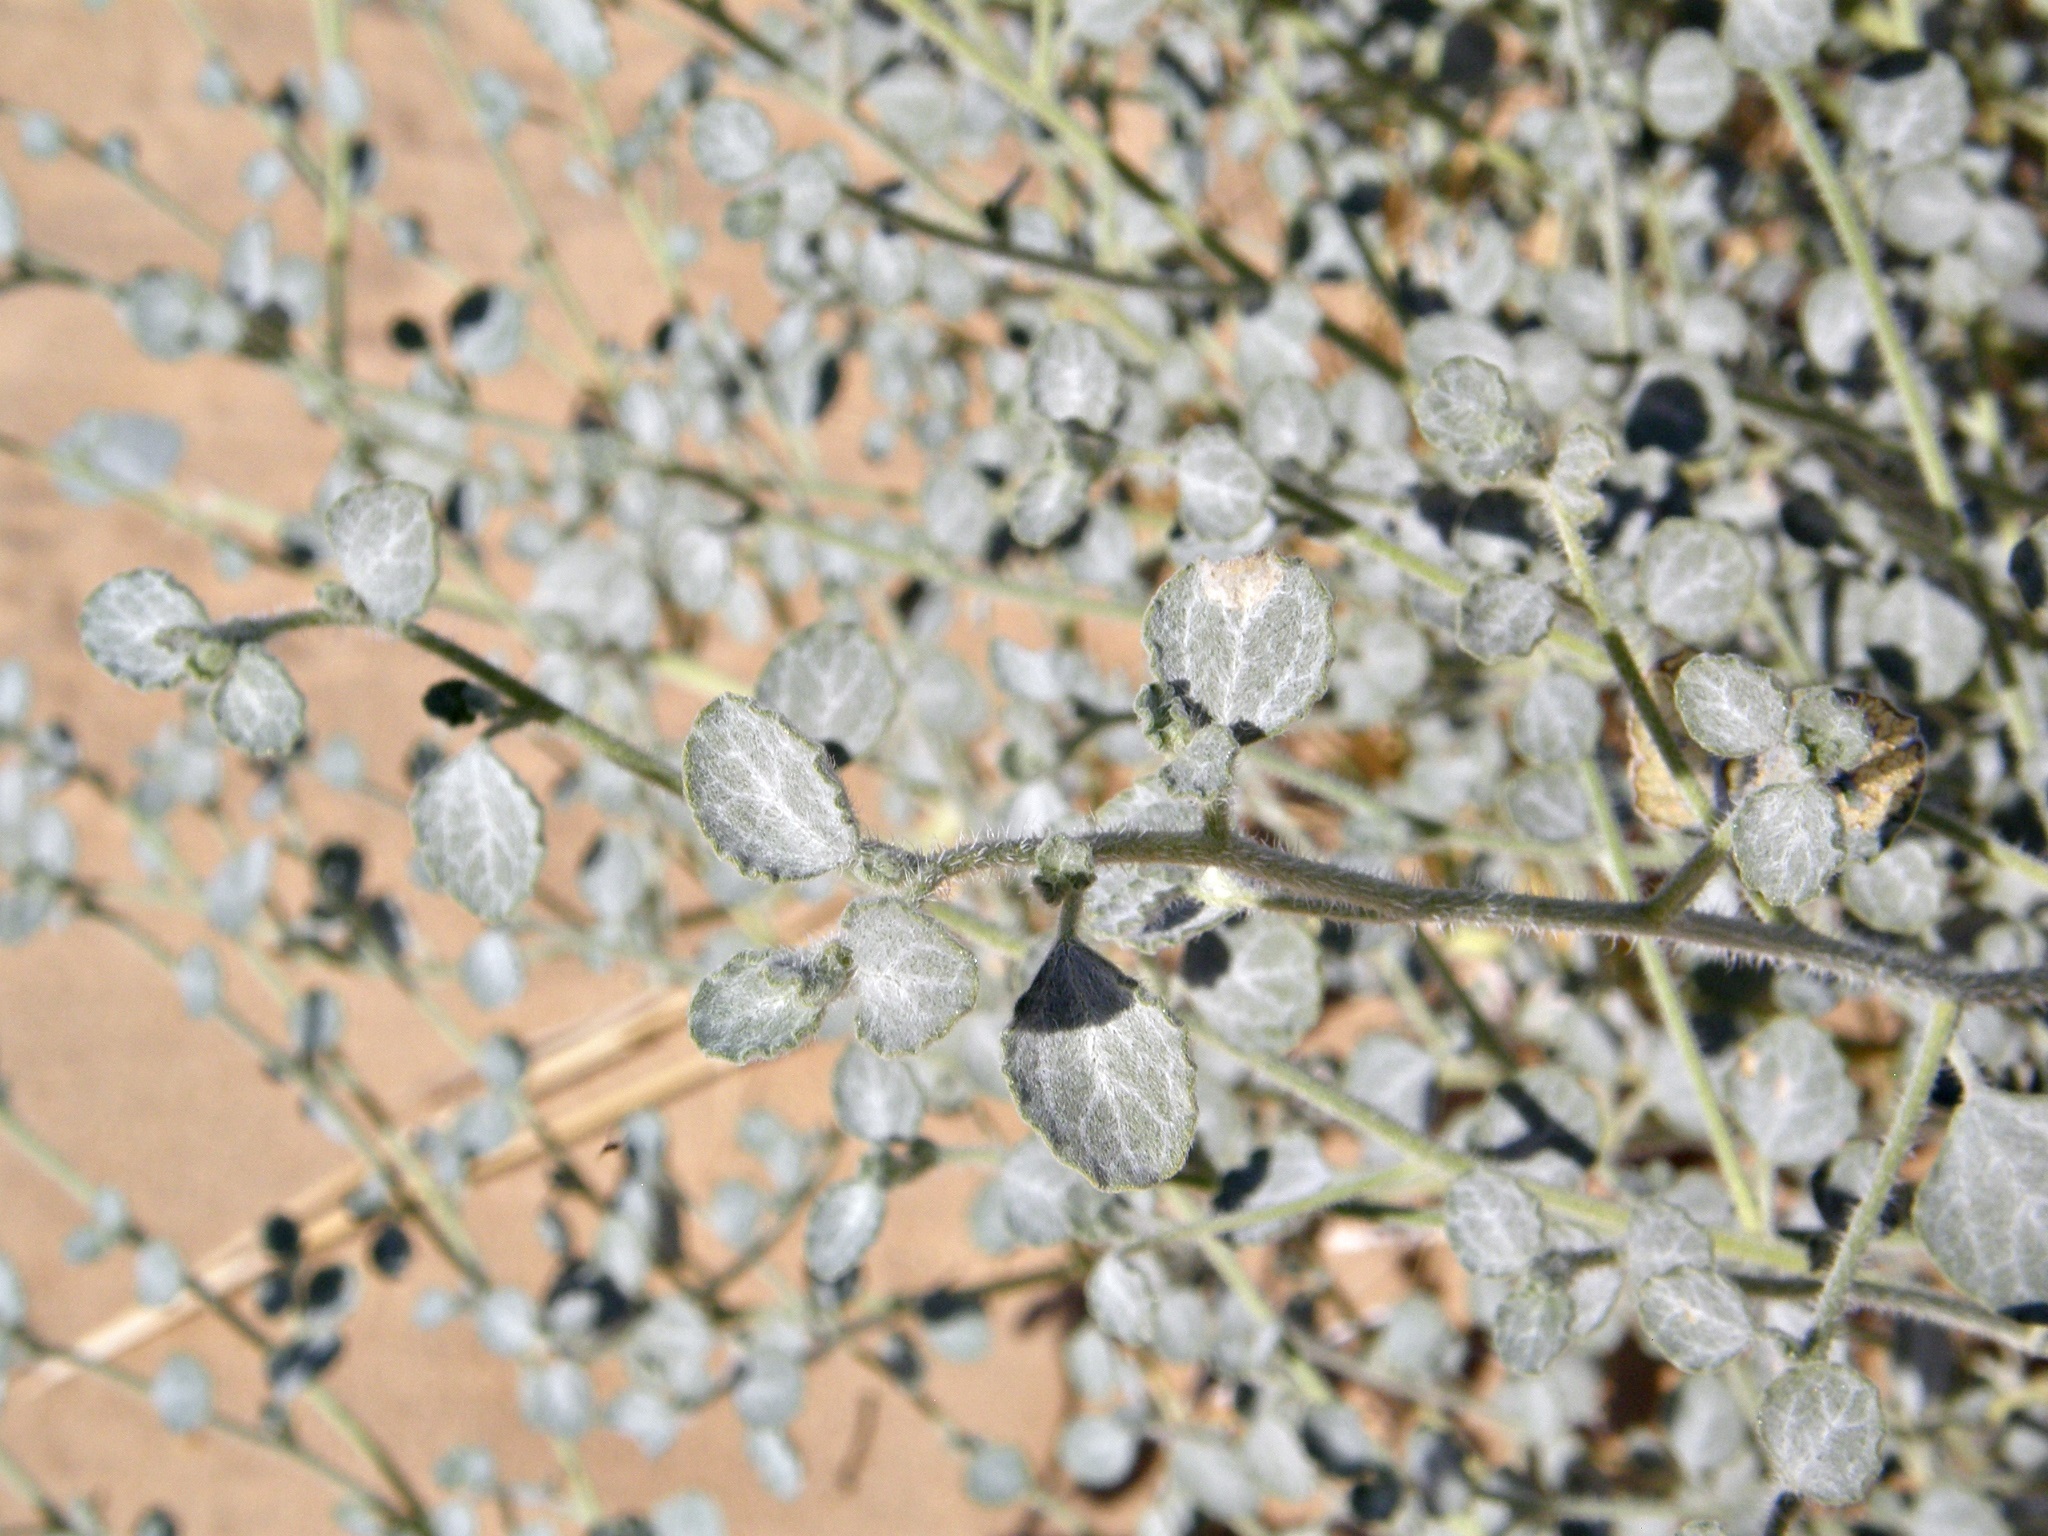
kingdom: Plantae
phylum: Tracheophyta
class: Magnoliopsida
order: Asterales
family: Asteraceae
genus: Dicoria
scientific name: Dicoria canescens
